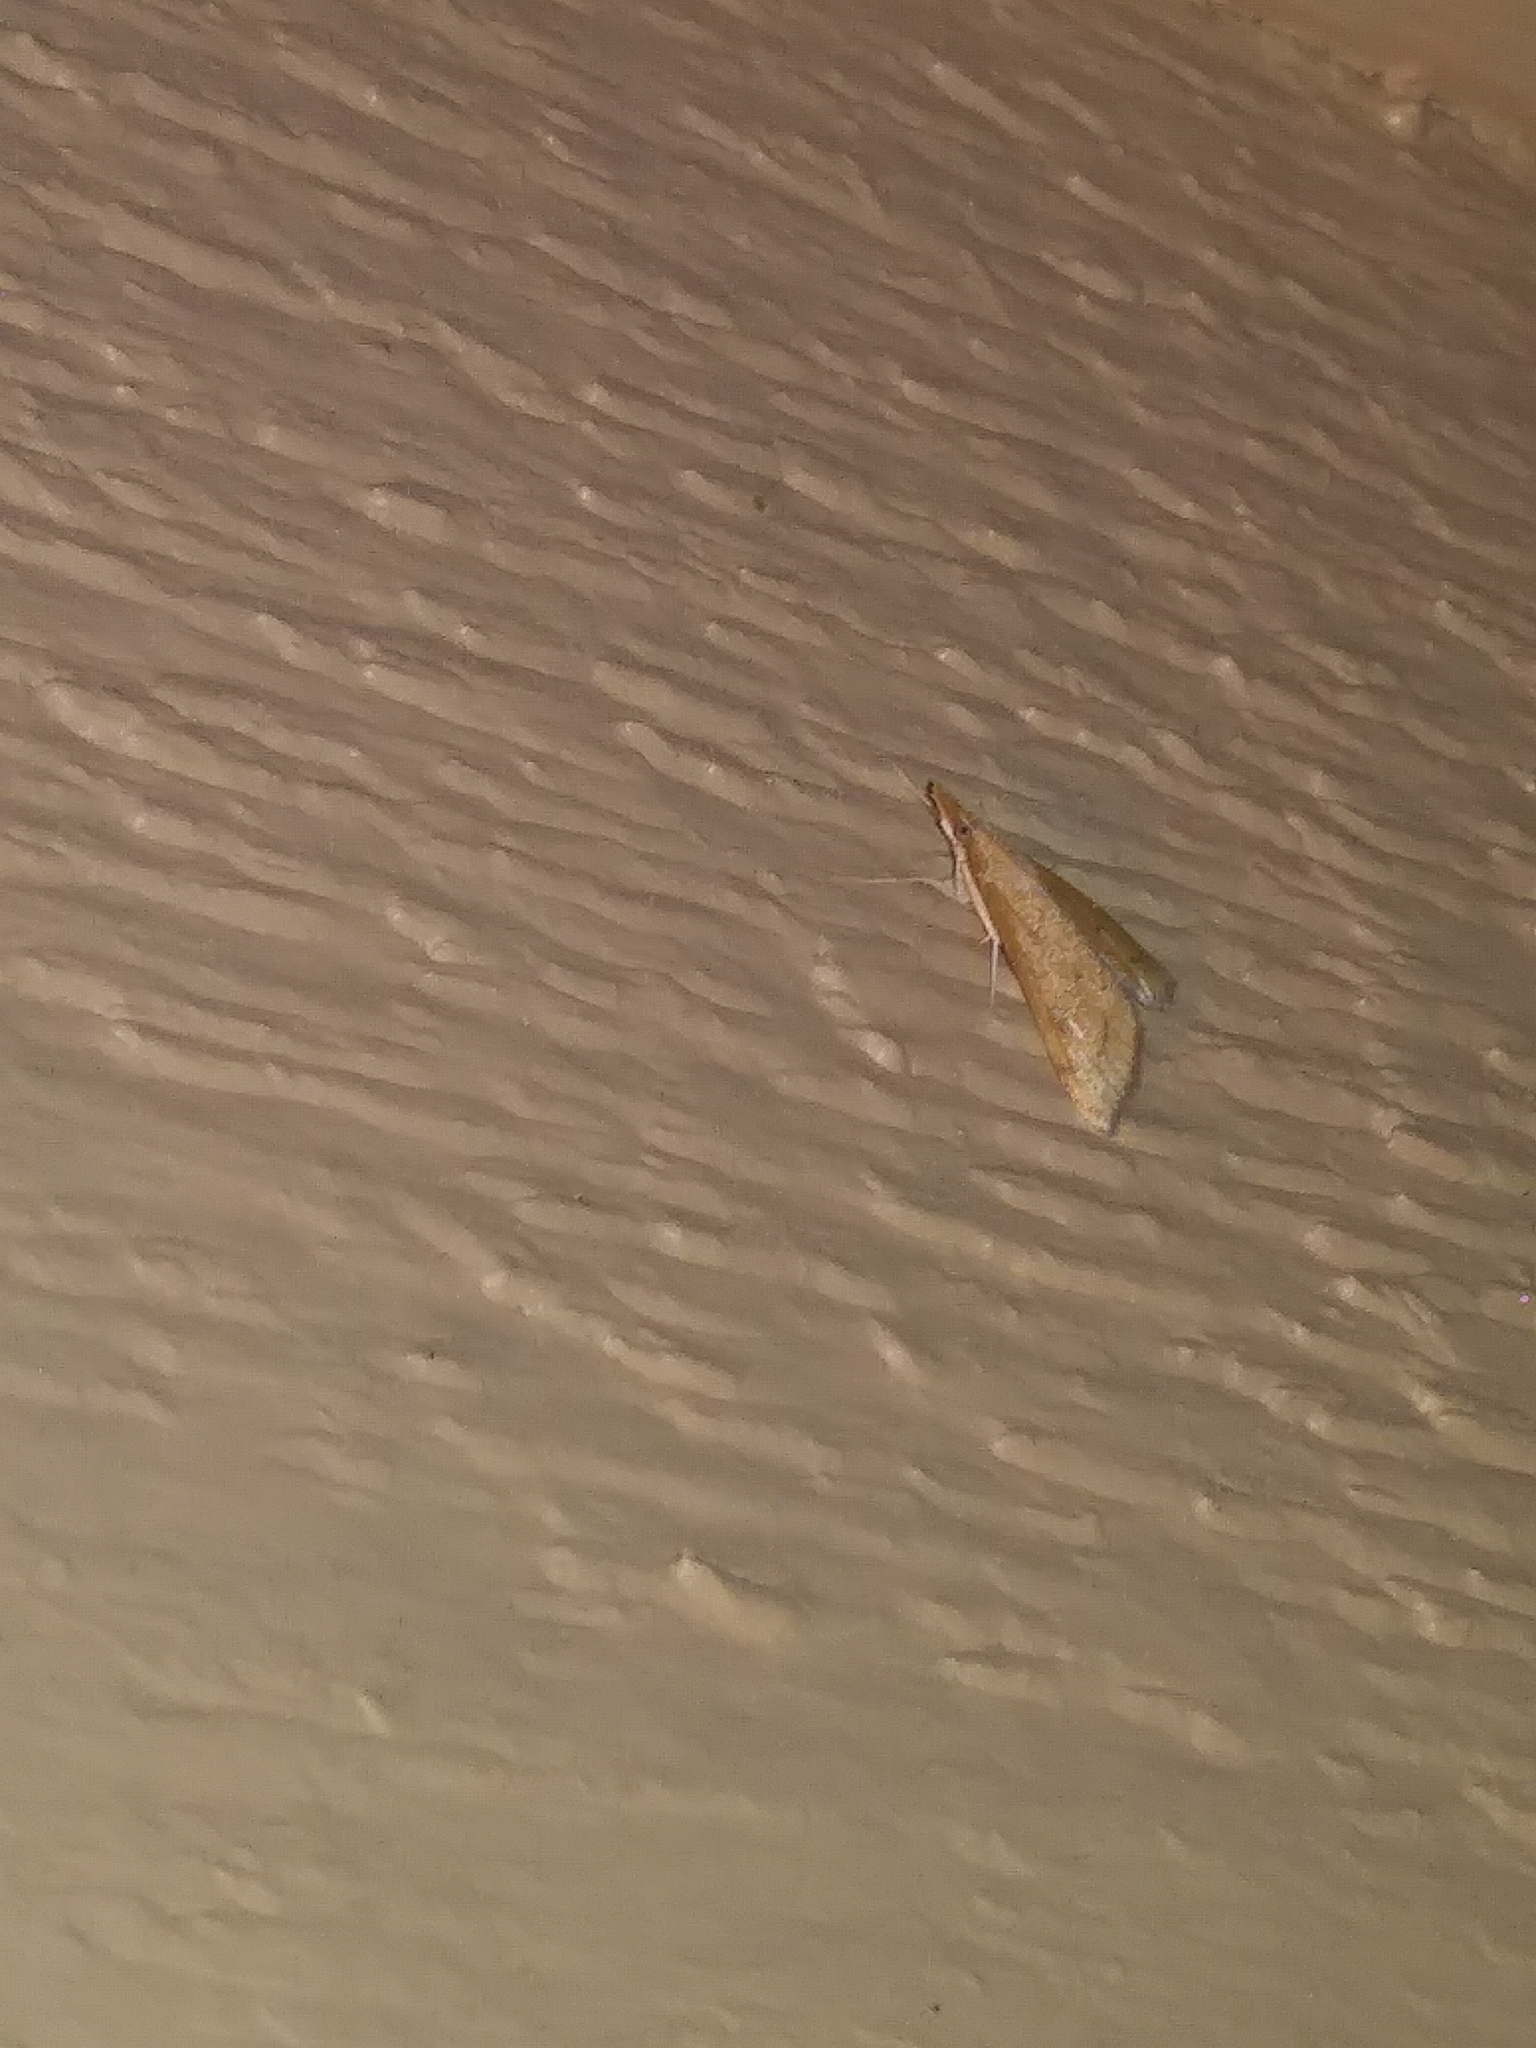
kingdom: Animalia
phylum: Arthropoda
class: Insecta
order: Lepidoptera
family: Crambidae
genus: Udea
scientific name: Udea rubigalis
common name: Celery leaftier moth
